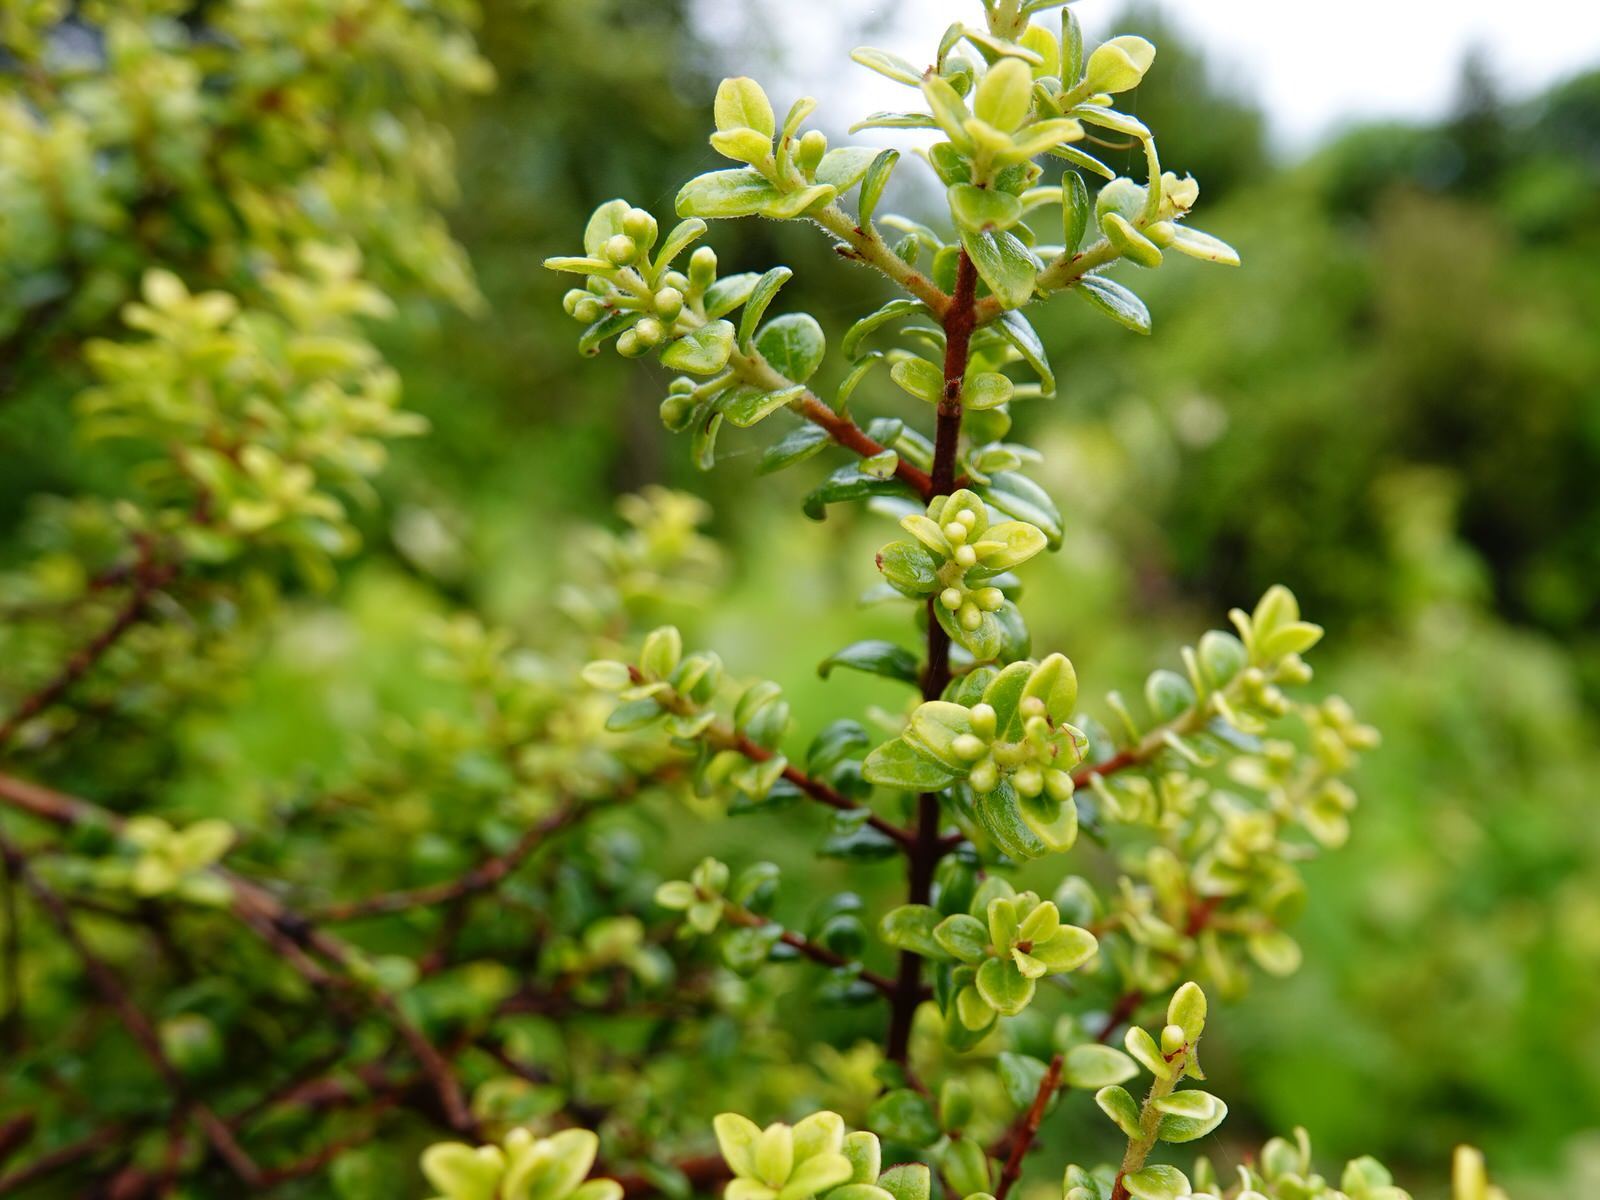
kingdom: Plantae
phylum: Tracheophyta
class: Magnoliopsida
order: Myrtales
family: Myrtaceae
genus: Metrosideros
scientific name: Metrosideros perforata
